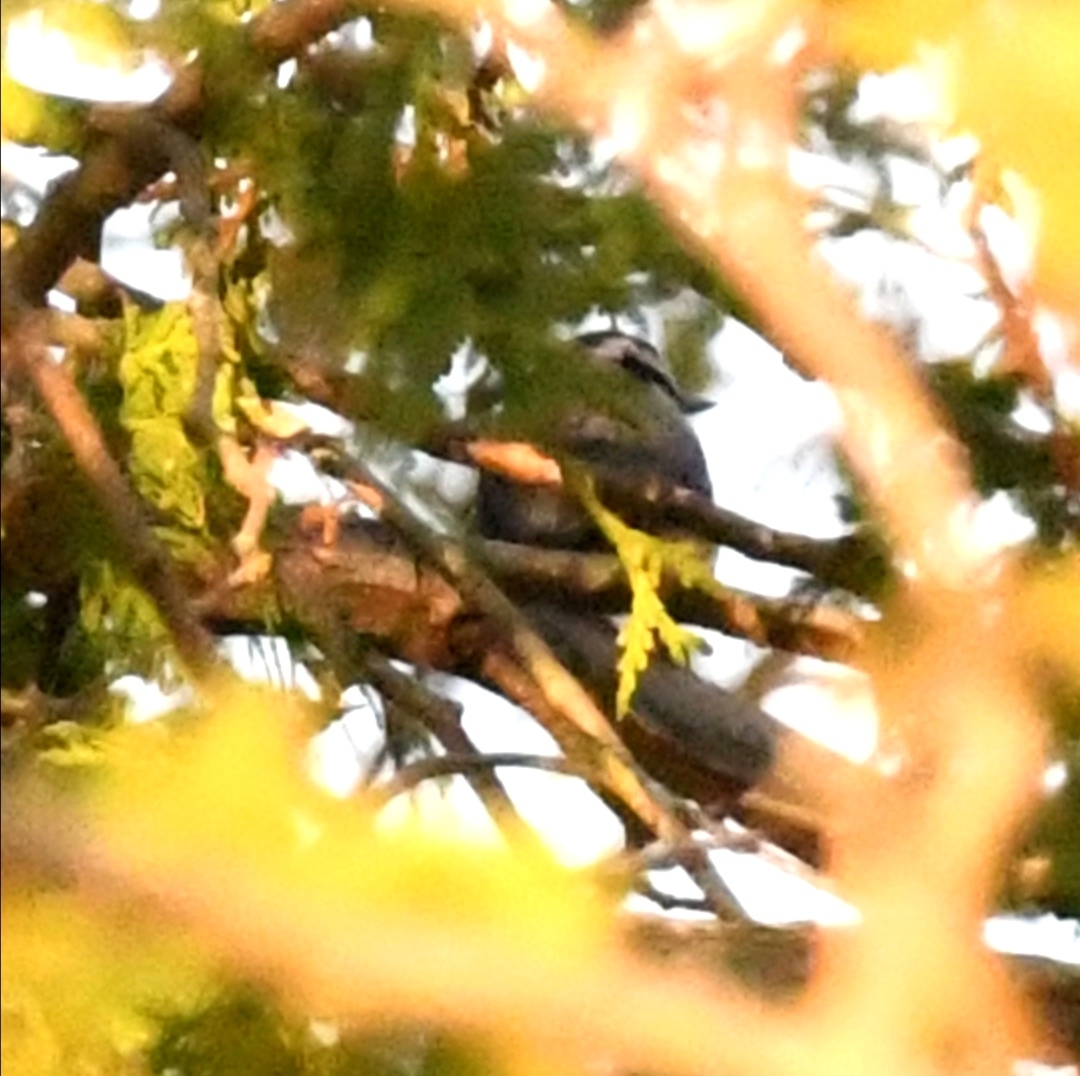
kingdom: Animalia
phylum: Chordata
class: Aves
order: Passeriformes
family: Sittidae
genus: Sitta
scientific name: Sitta canadensis
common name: Red-breasted nuthatch
